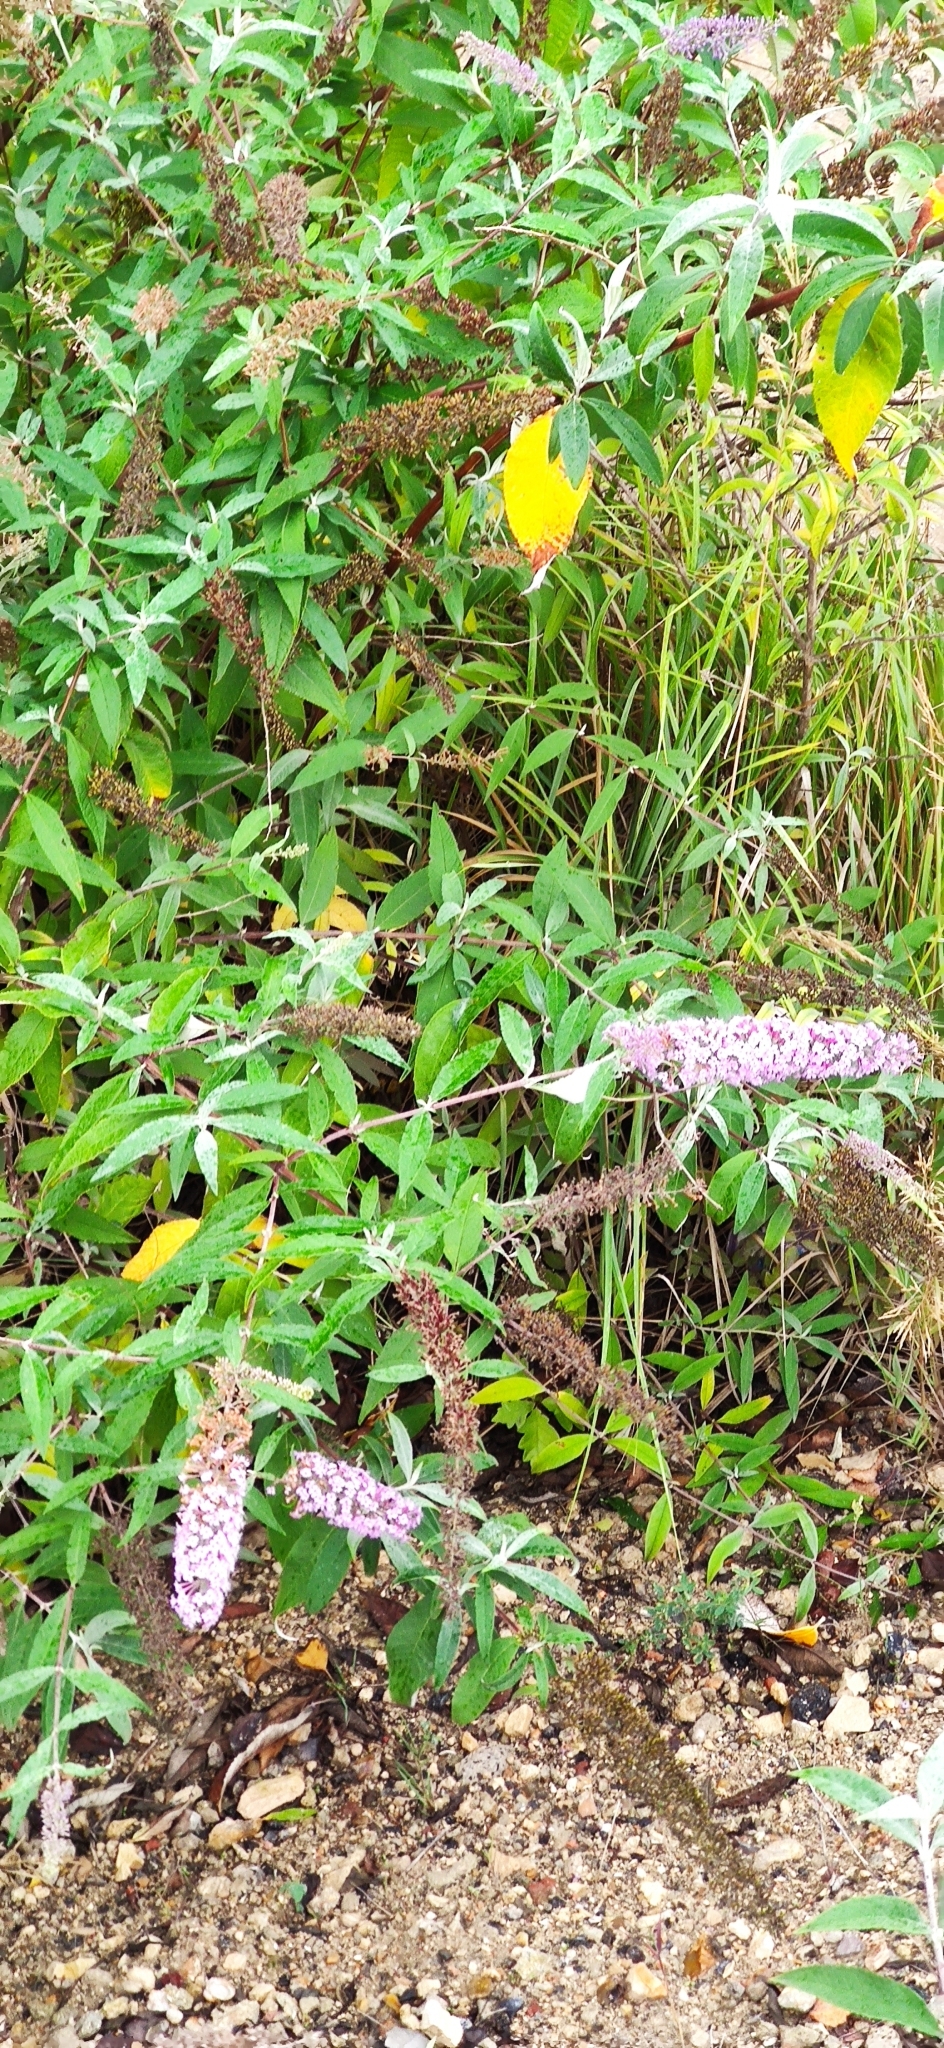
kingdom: Plantae
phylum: Tracheophyta
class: Magnoliopsida
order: Lamiales
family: Scrophulariaceae
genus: Buddleja
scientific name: Buddleja davidii
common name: Butterfly-bush
